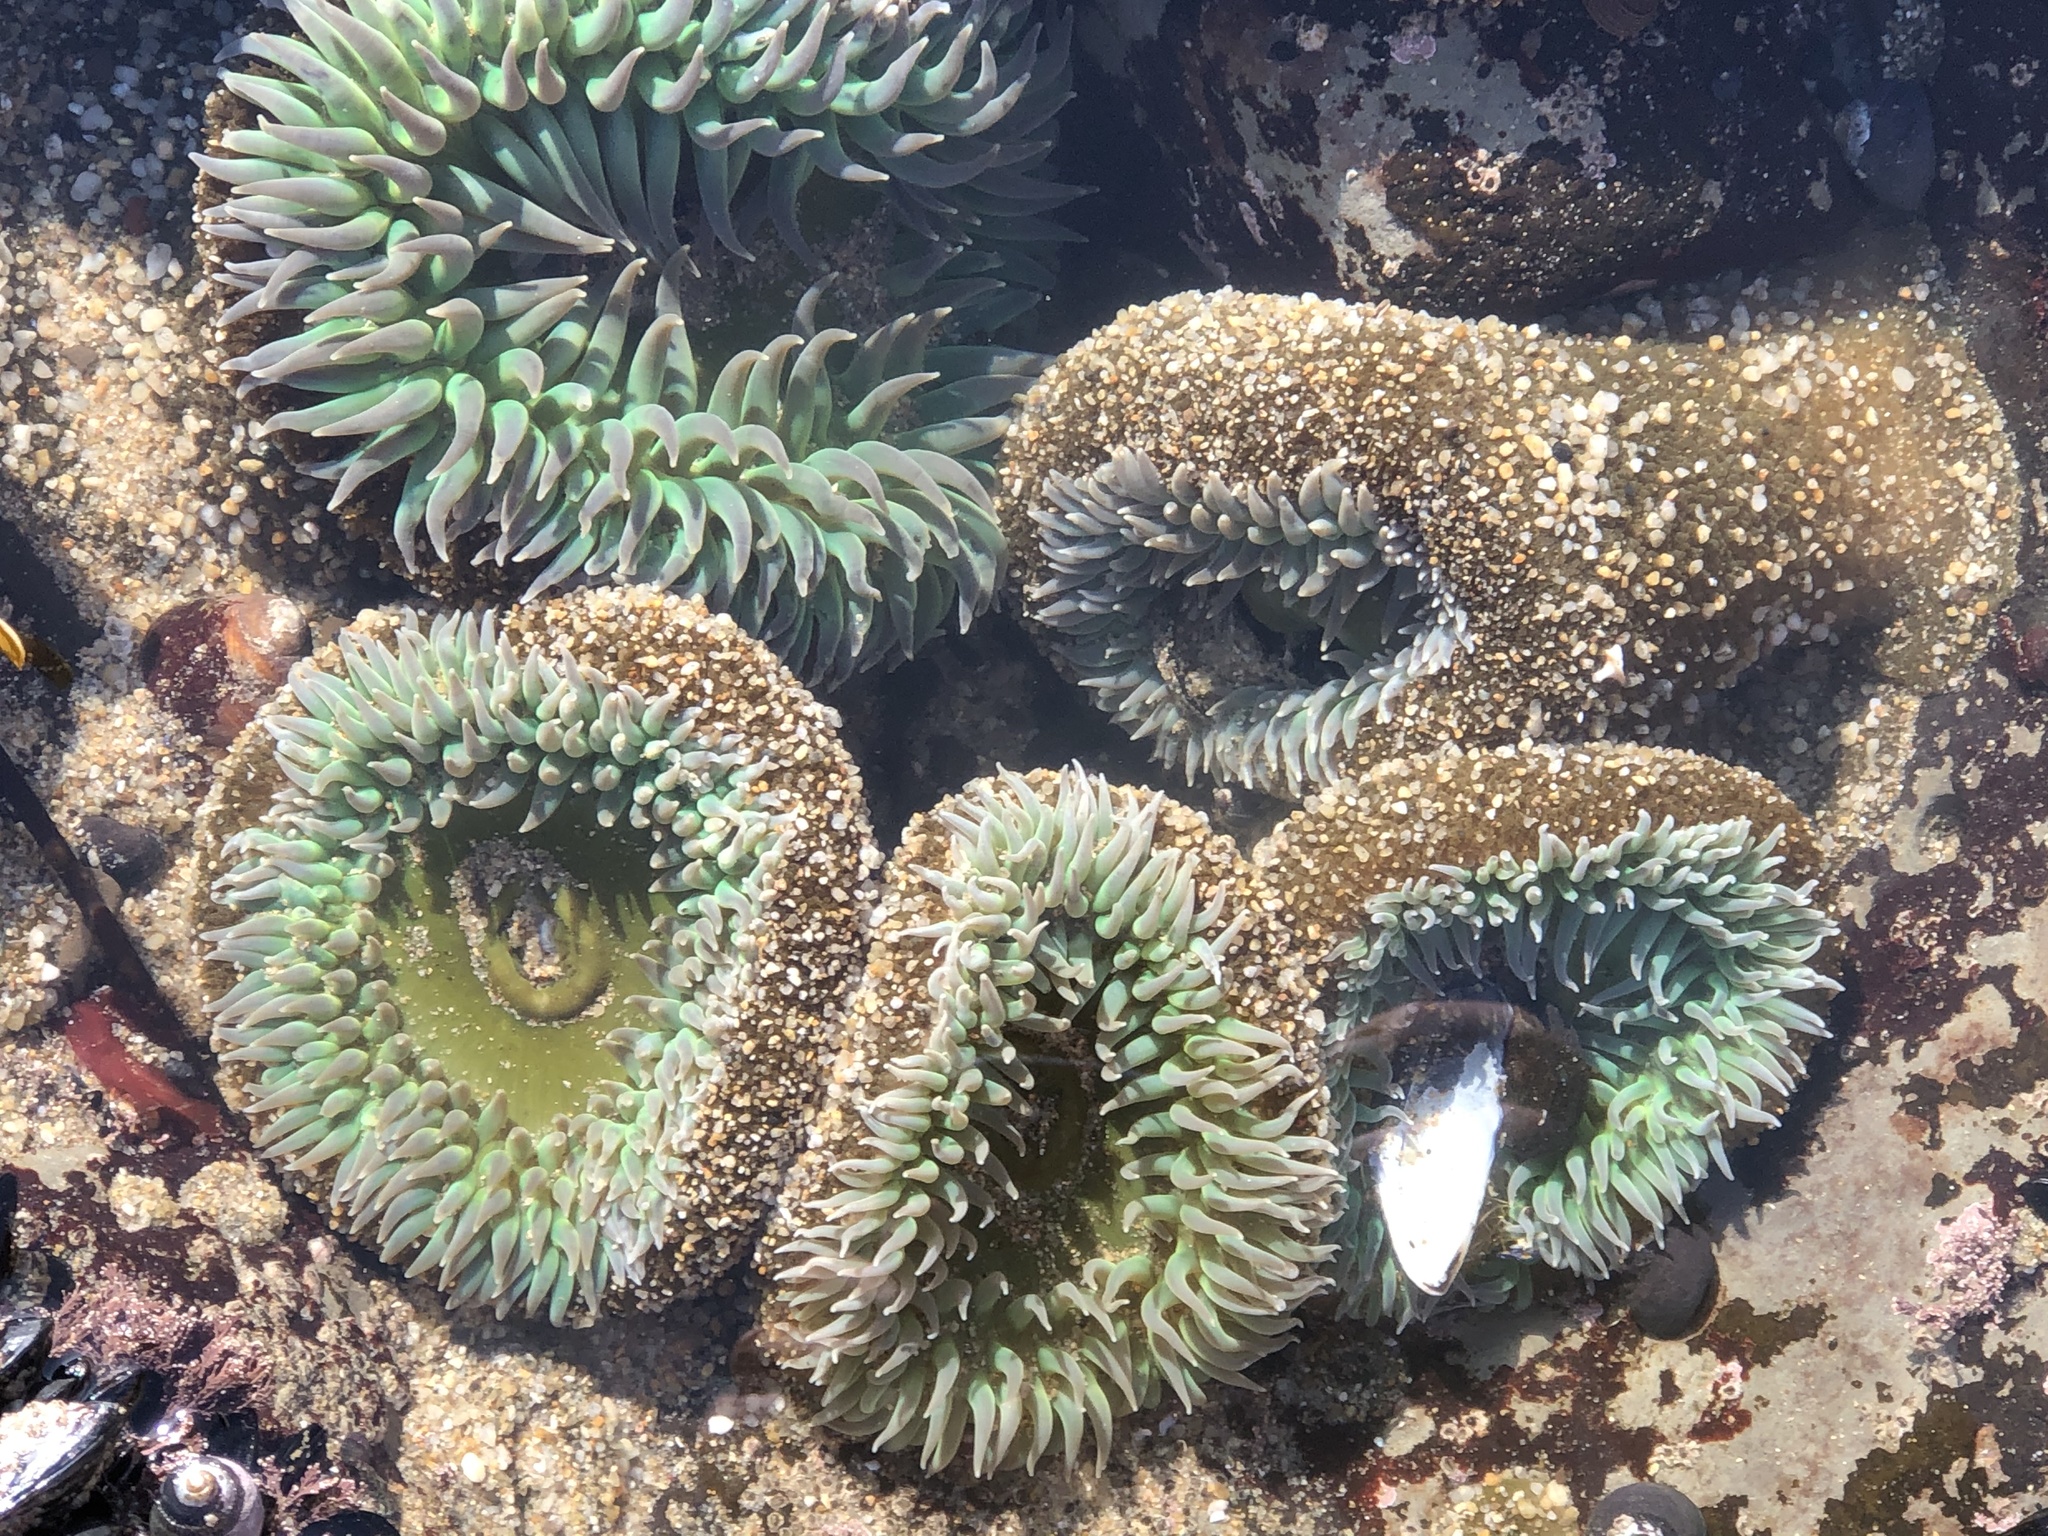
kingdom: Animalia
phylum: Cnidaria
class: Anthozoa
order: Actiniaria
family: Actiniidae
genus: Anthopleura
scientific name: Anthopleura xanthogrammica
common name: Giant green anemone
